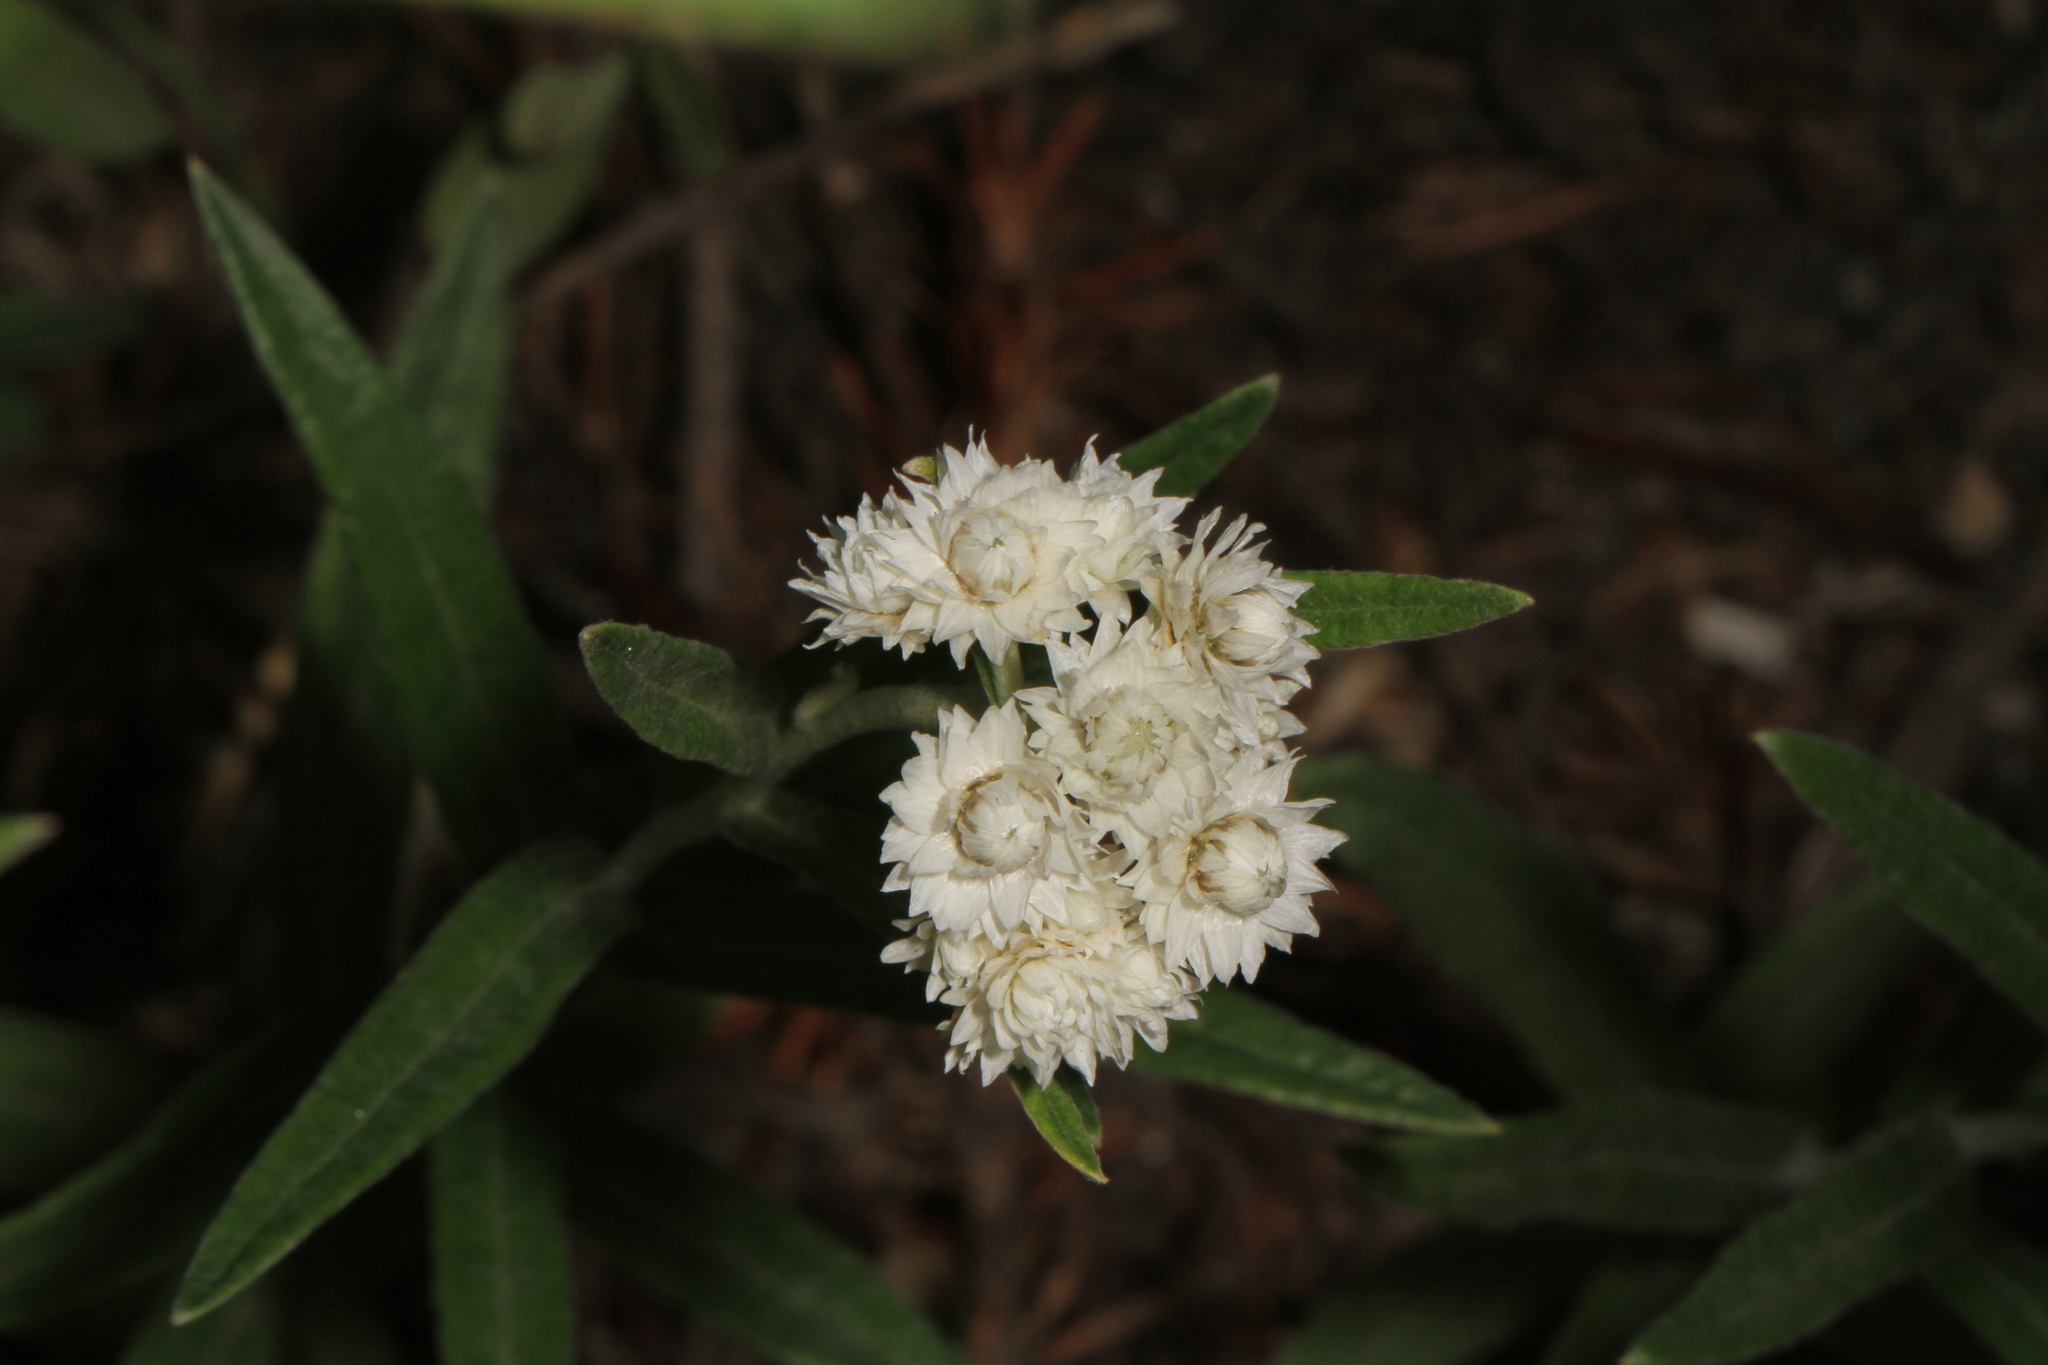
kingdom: Plantae
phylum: Tracheophyta
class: Magnoliopsida
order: Asterales
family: Asteraceae
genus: Anaphalis
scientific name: Anaphalis margaritacea
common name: Pearly everlasting
